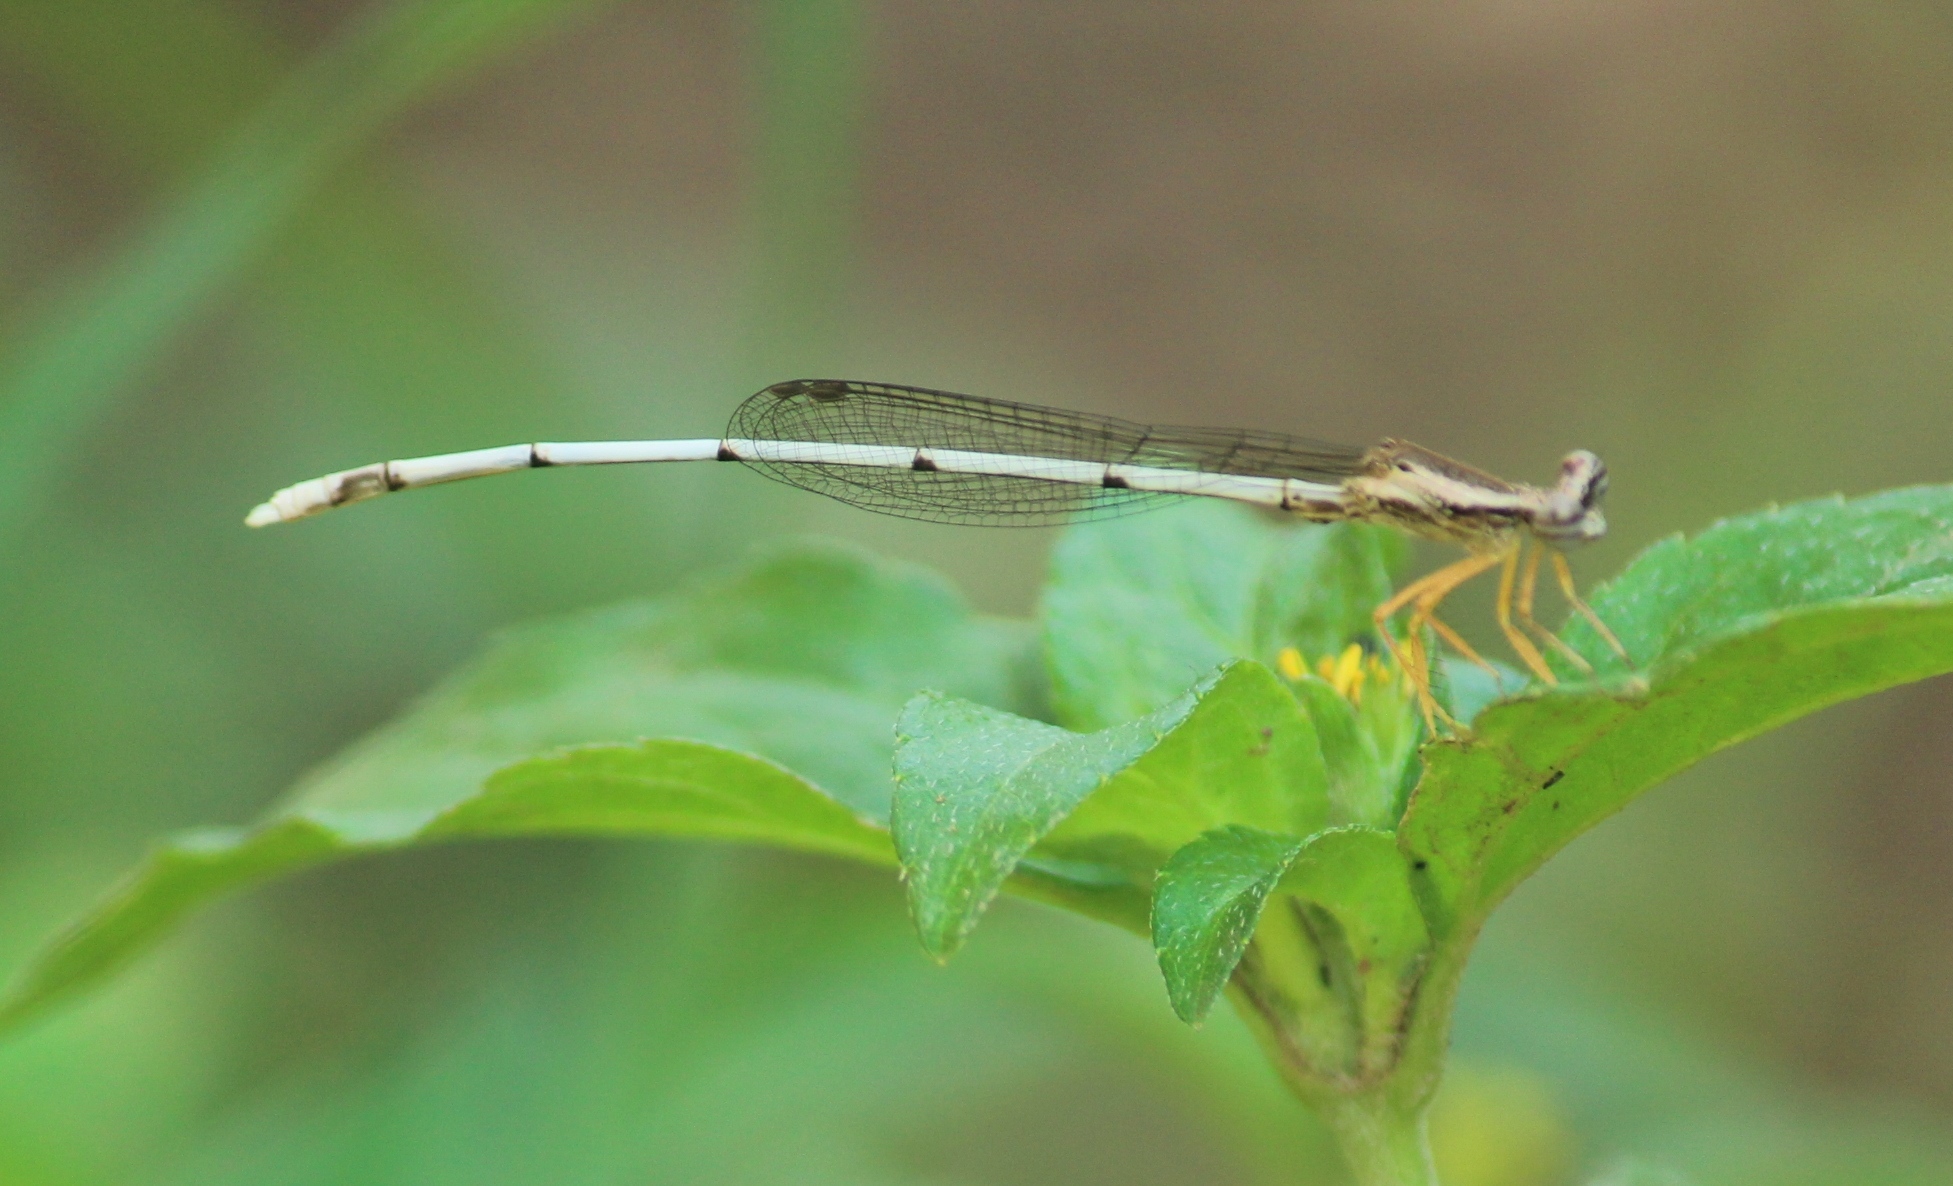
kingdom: Animalia
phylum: Arthropoda
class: Insecta
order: Odonata
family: Platycnemididae
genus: Copera
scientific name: Copera marginipes
